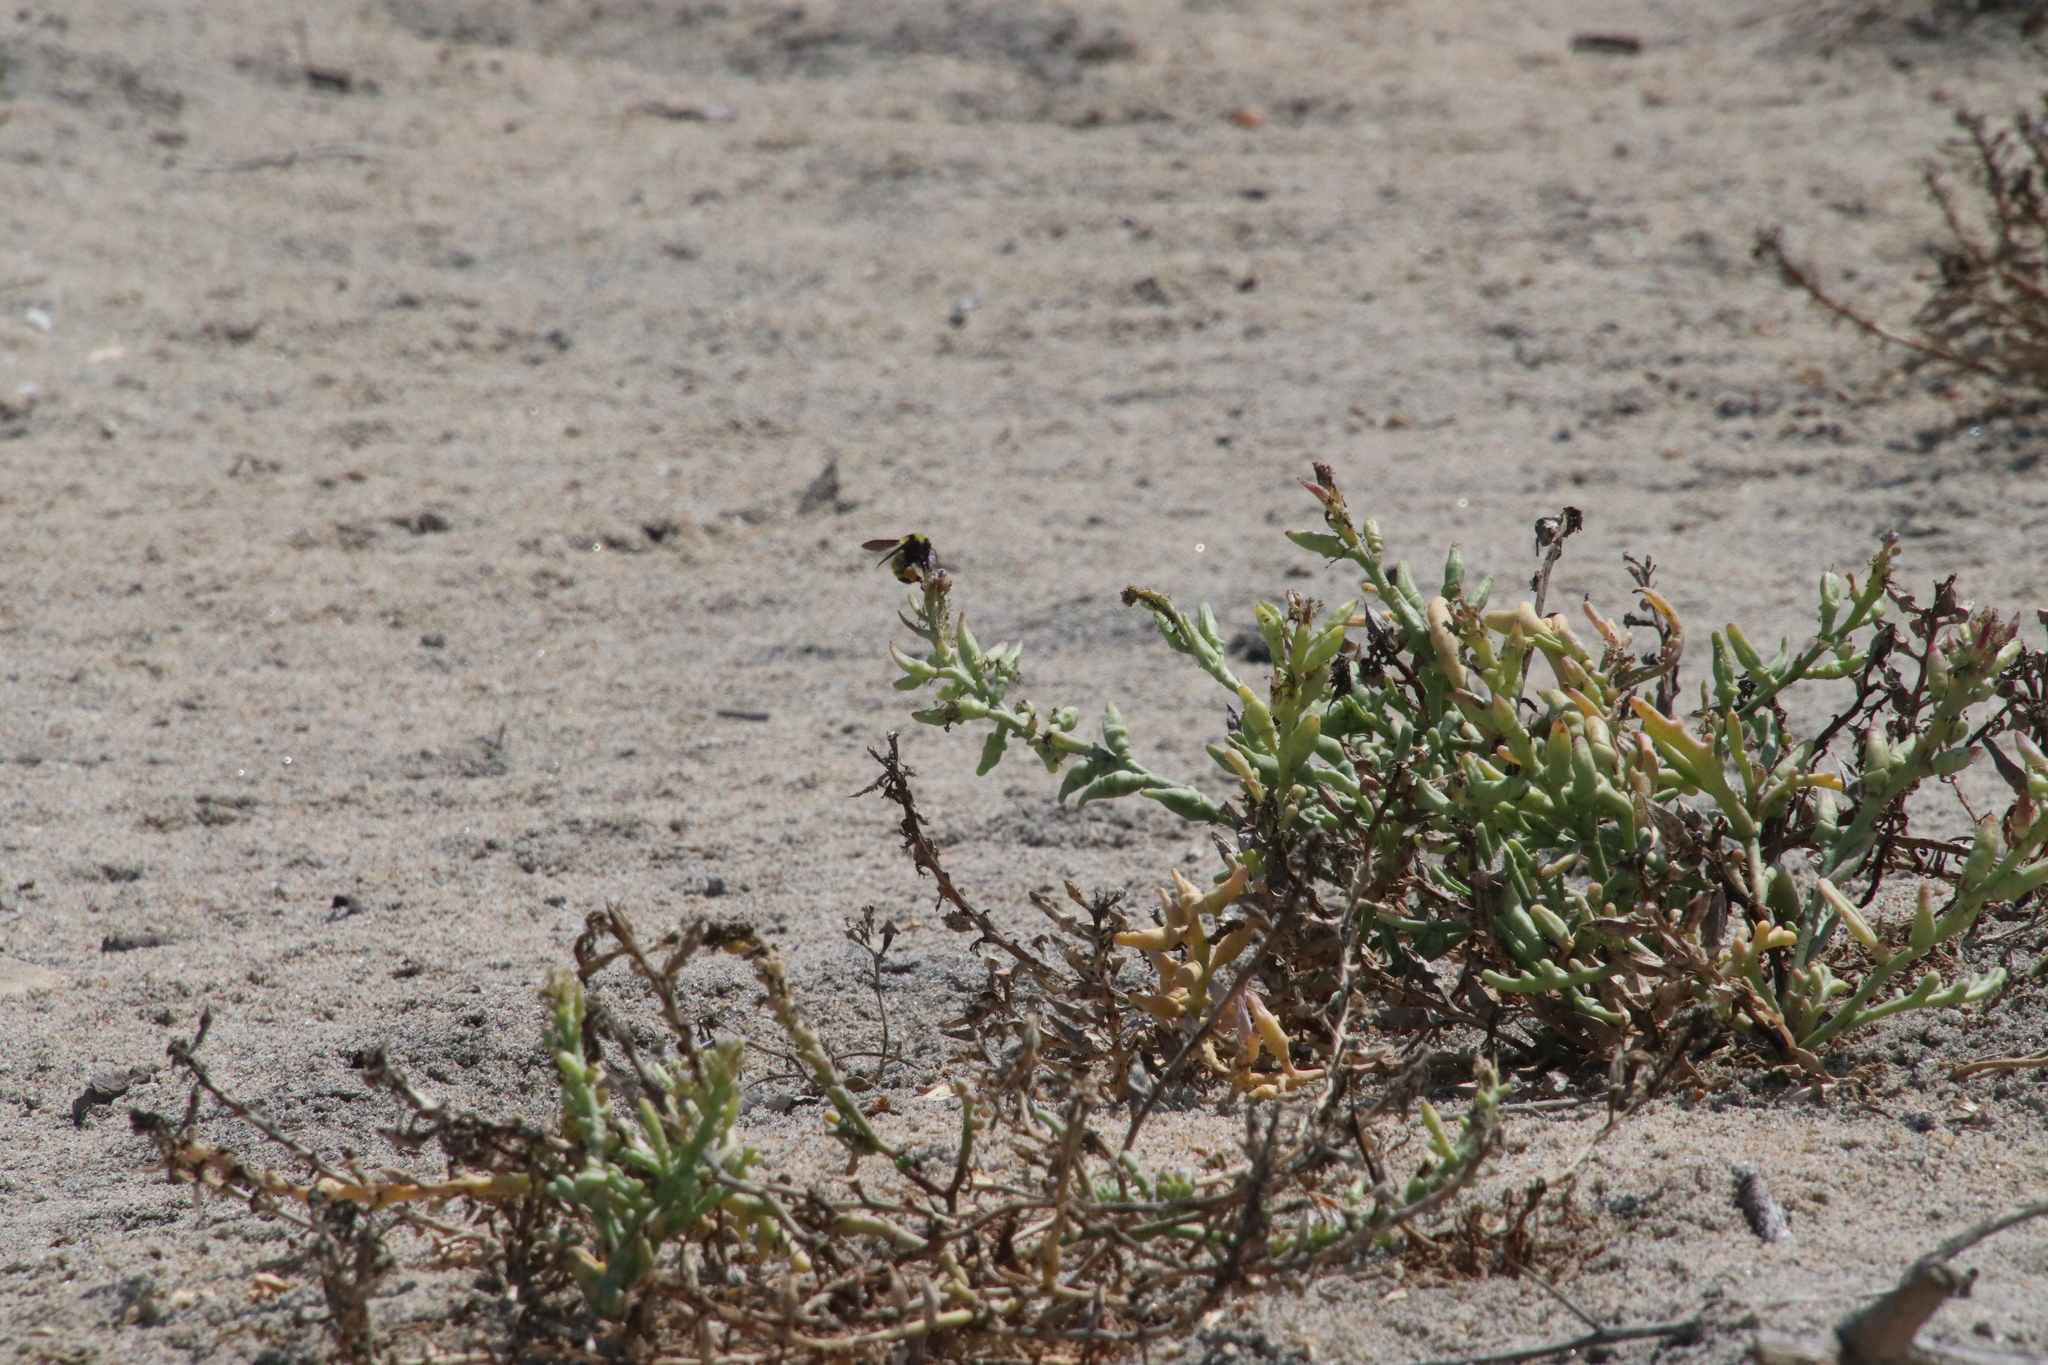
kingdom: Animalia
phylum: Arthropoda
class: Insecta
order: Hymenoptera
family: Apidae
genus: Bombus
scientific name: Bombus sonorus
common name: Sonoran bumble bee
